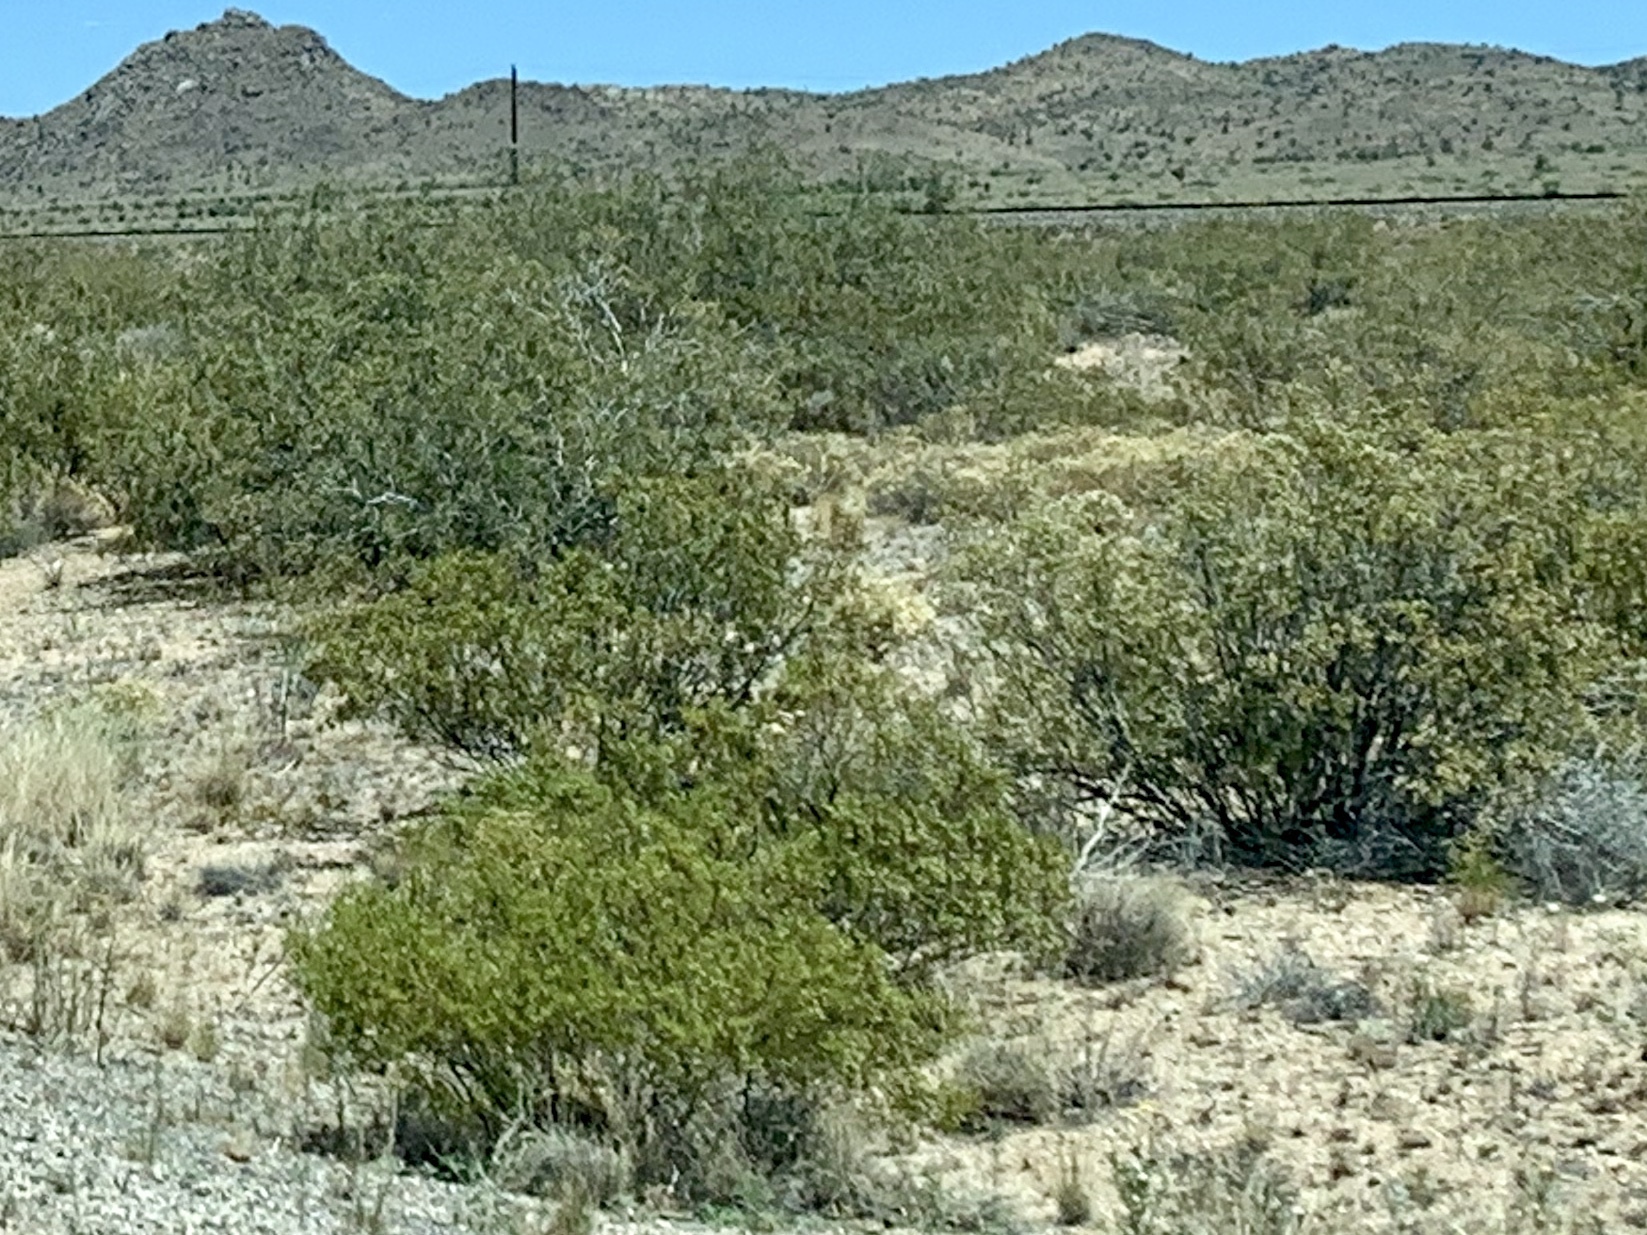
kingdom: Plantae
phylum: Tracheophyta
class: Magnoliopsida
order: Zygophyllales
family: Zygophyllaceae
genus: Larrea
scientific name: Larrea tridentata
